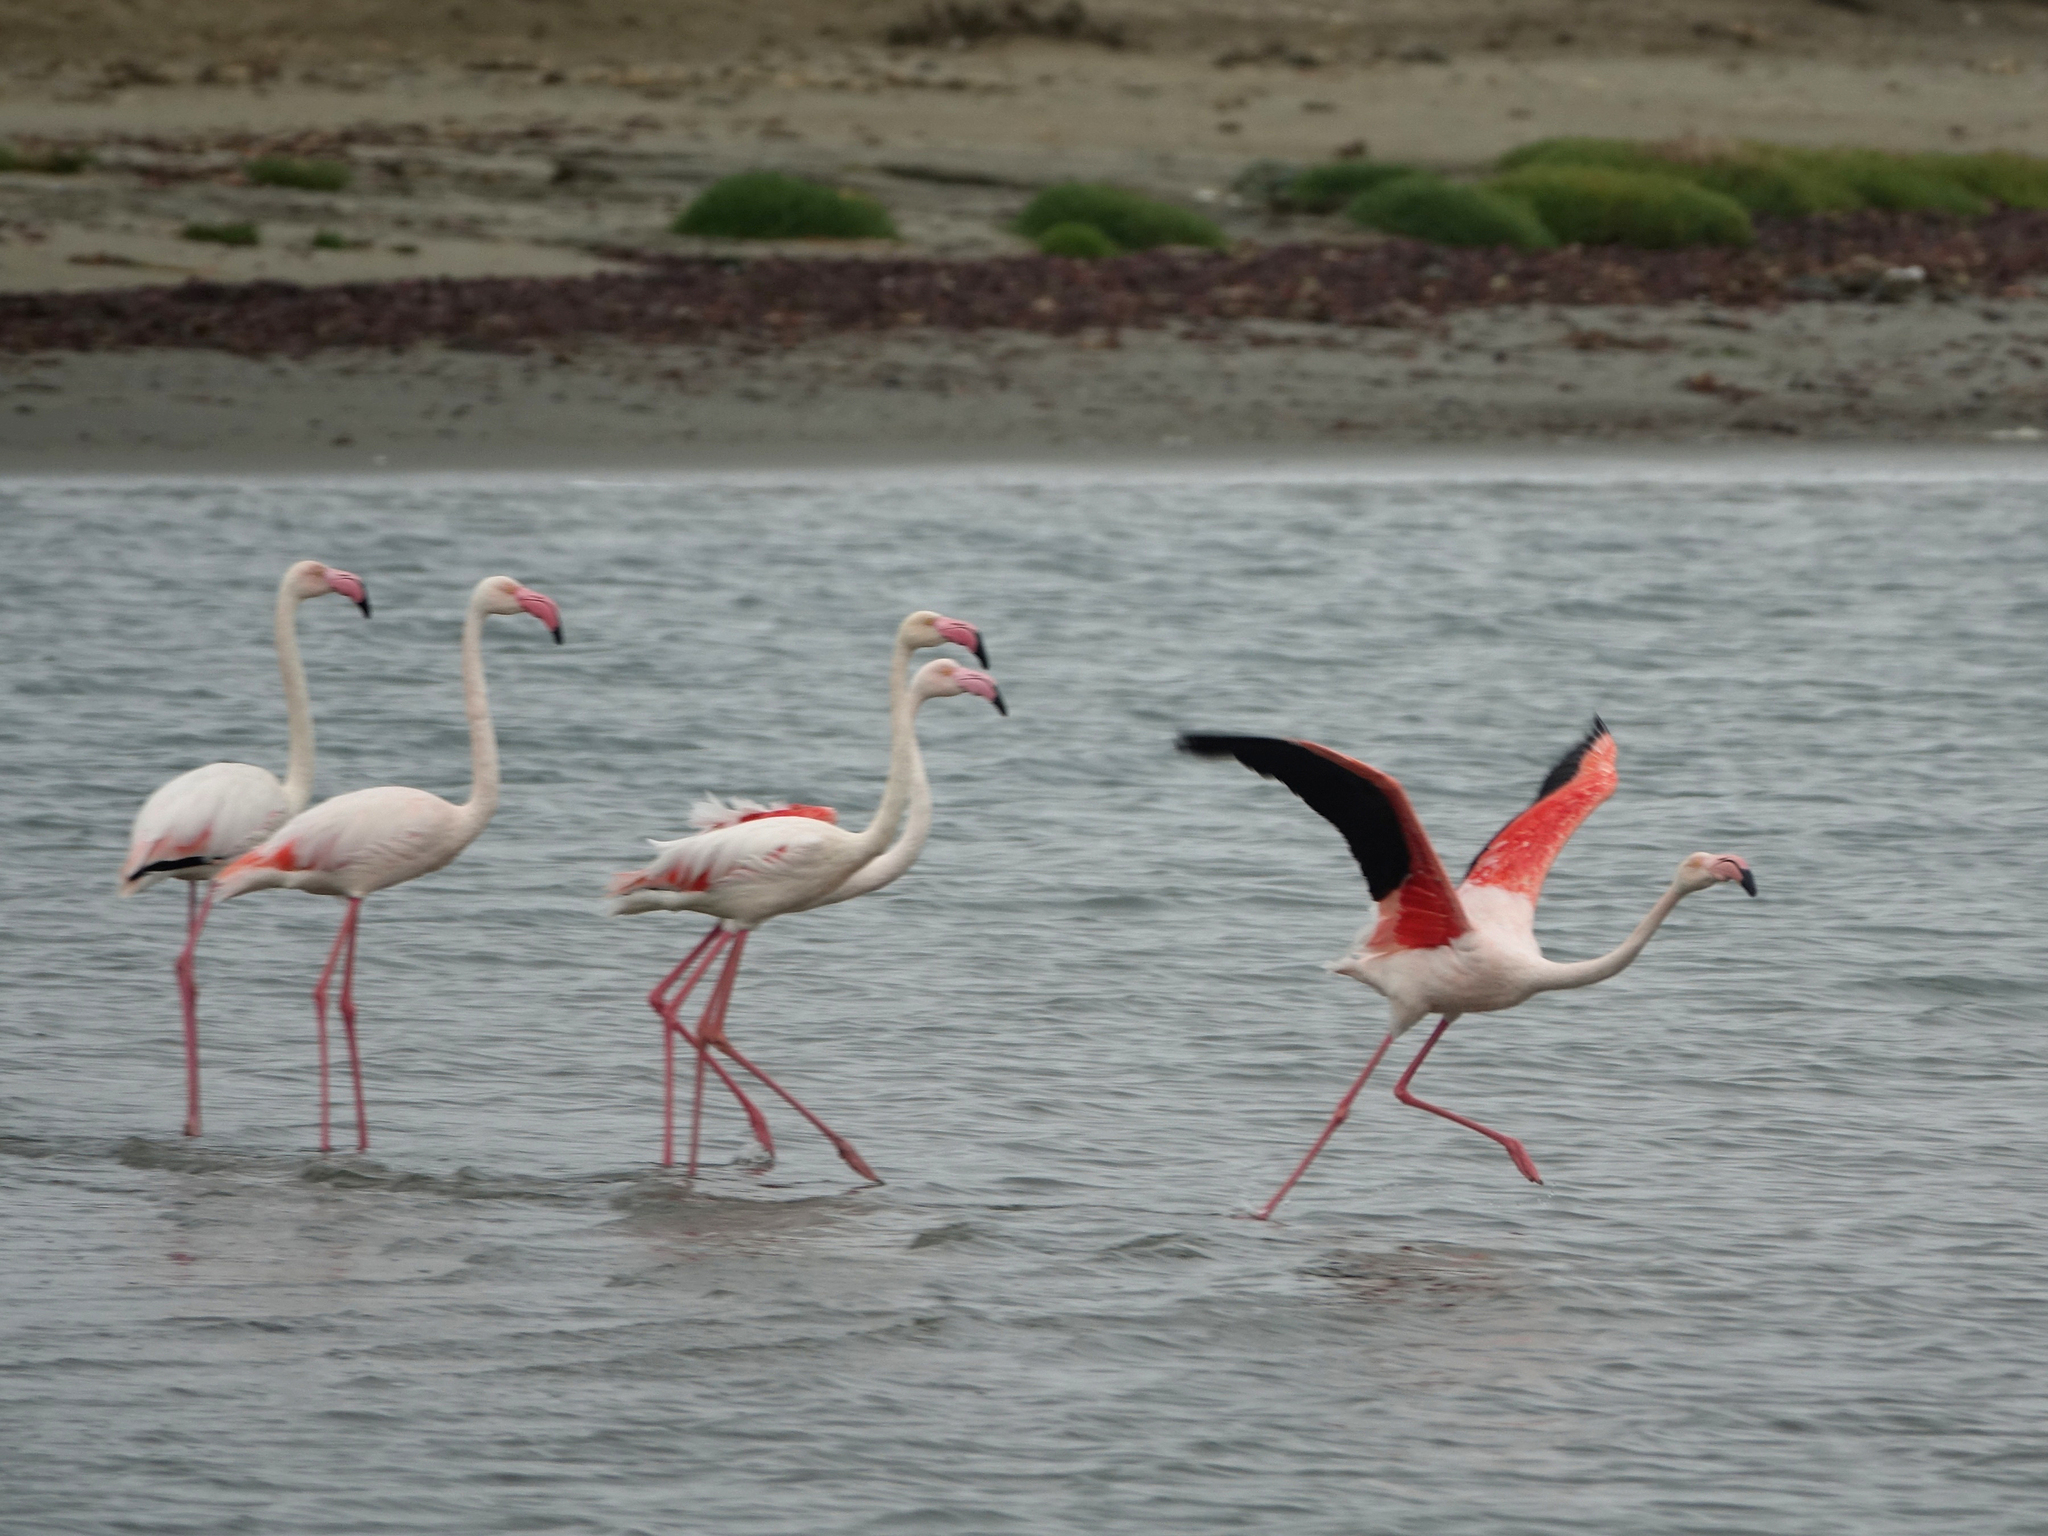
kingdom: Animalia
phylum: Chordata
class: Aves
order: Phoenicopteriformes
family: Phoenicopteridae
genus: Phoenicopterus
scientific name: Phoenicopterus roseus
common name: Greater flamingo
